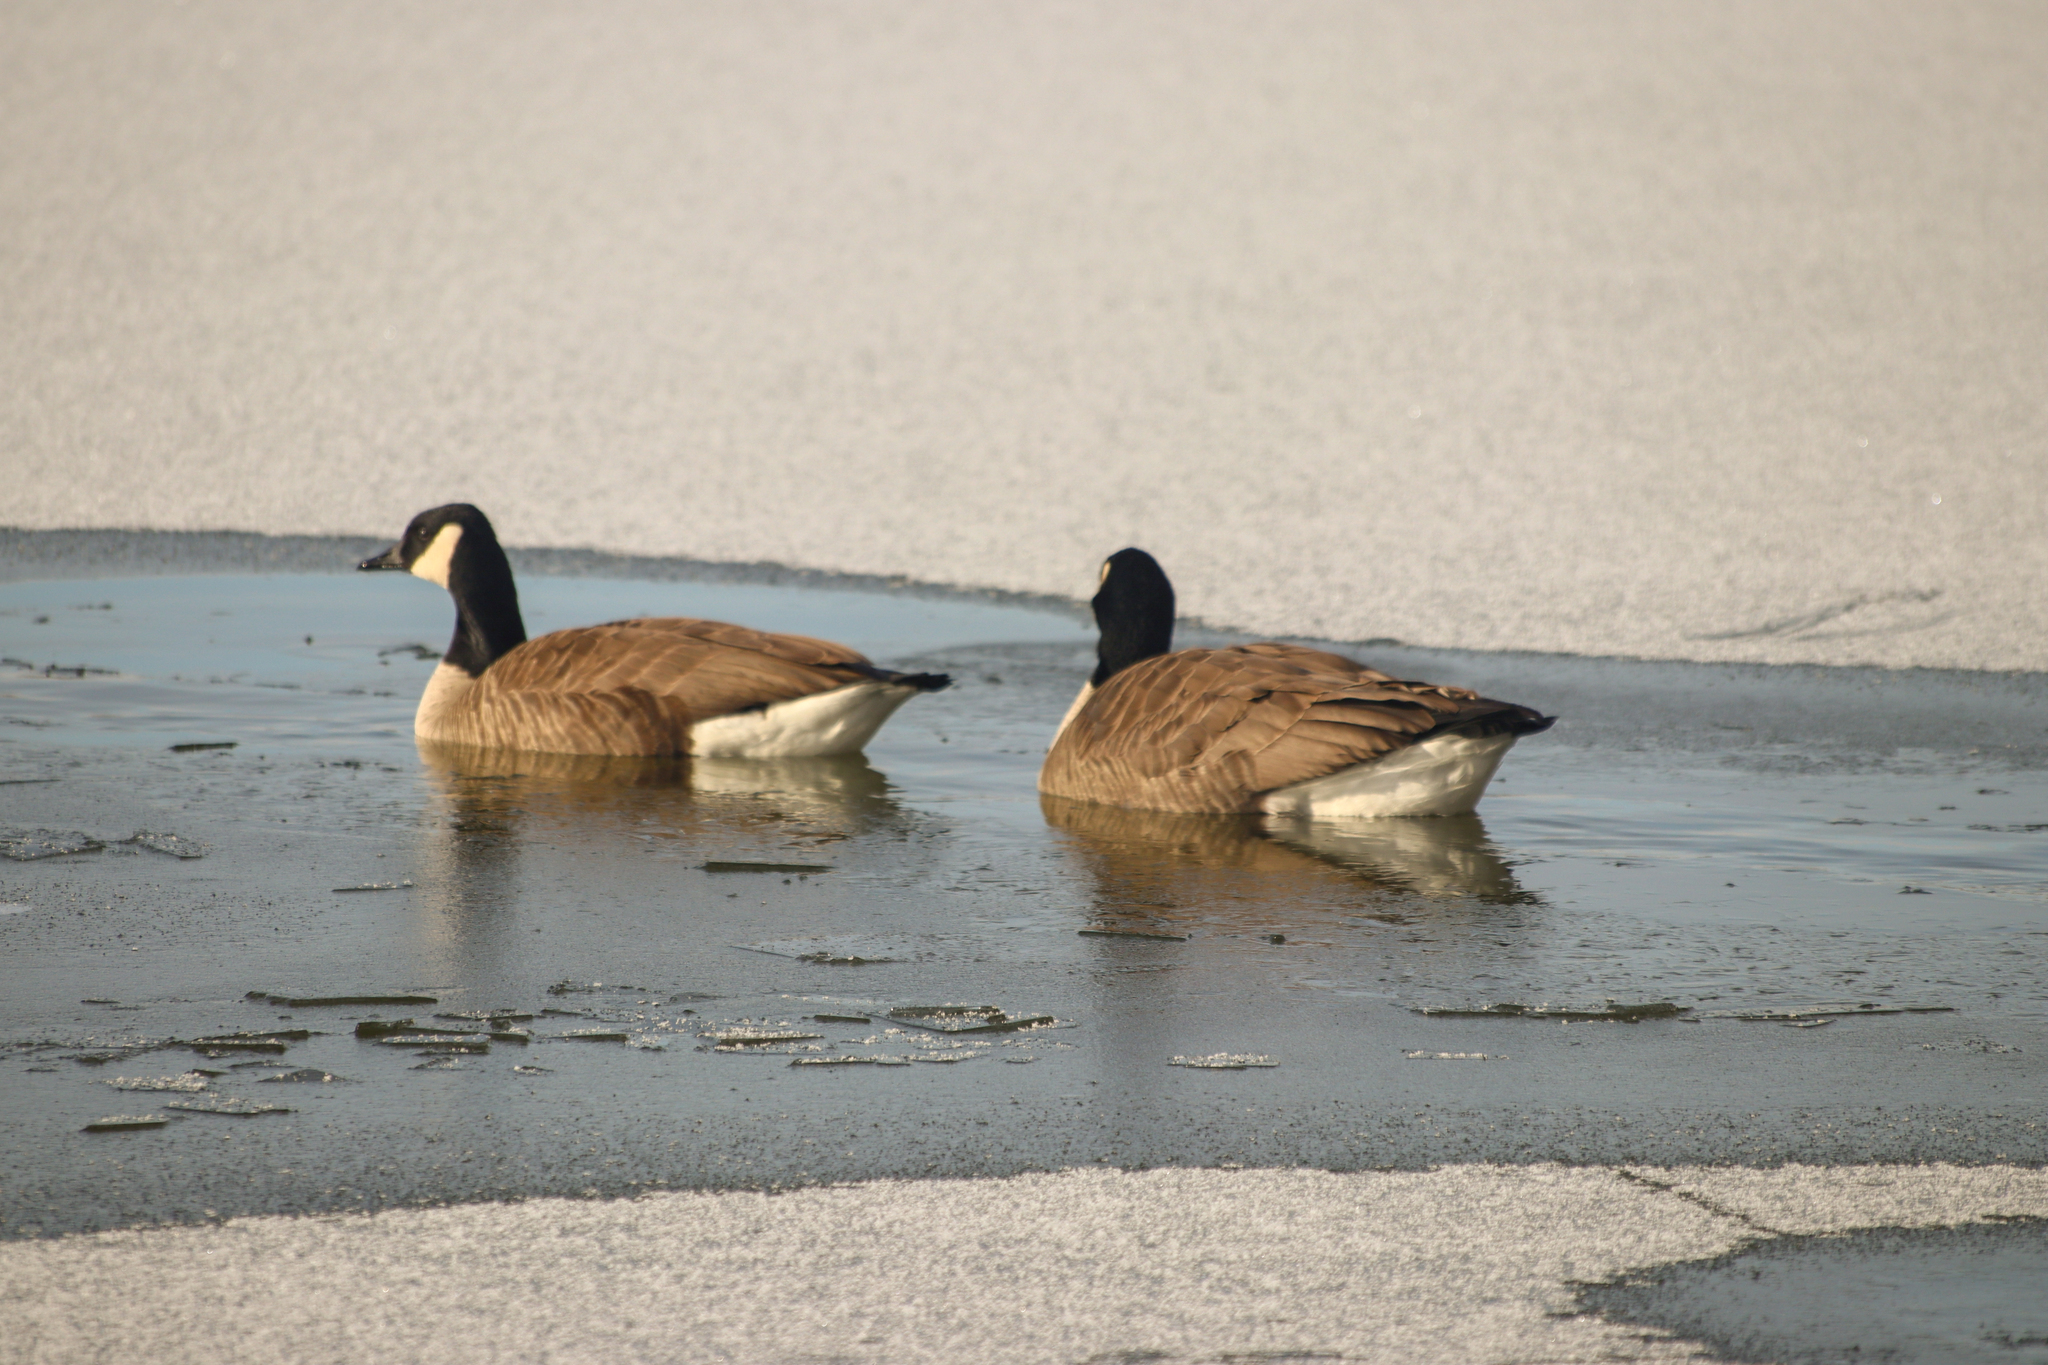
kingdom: Animalia
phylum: Chordata
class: Aves
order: Anseriformes
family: Anatidae
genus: Branta
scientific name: Branta canadensis
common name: Canada goose
